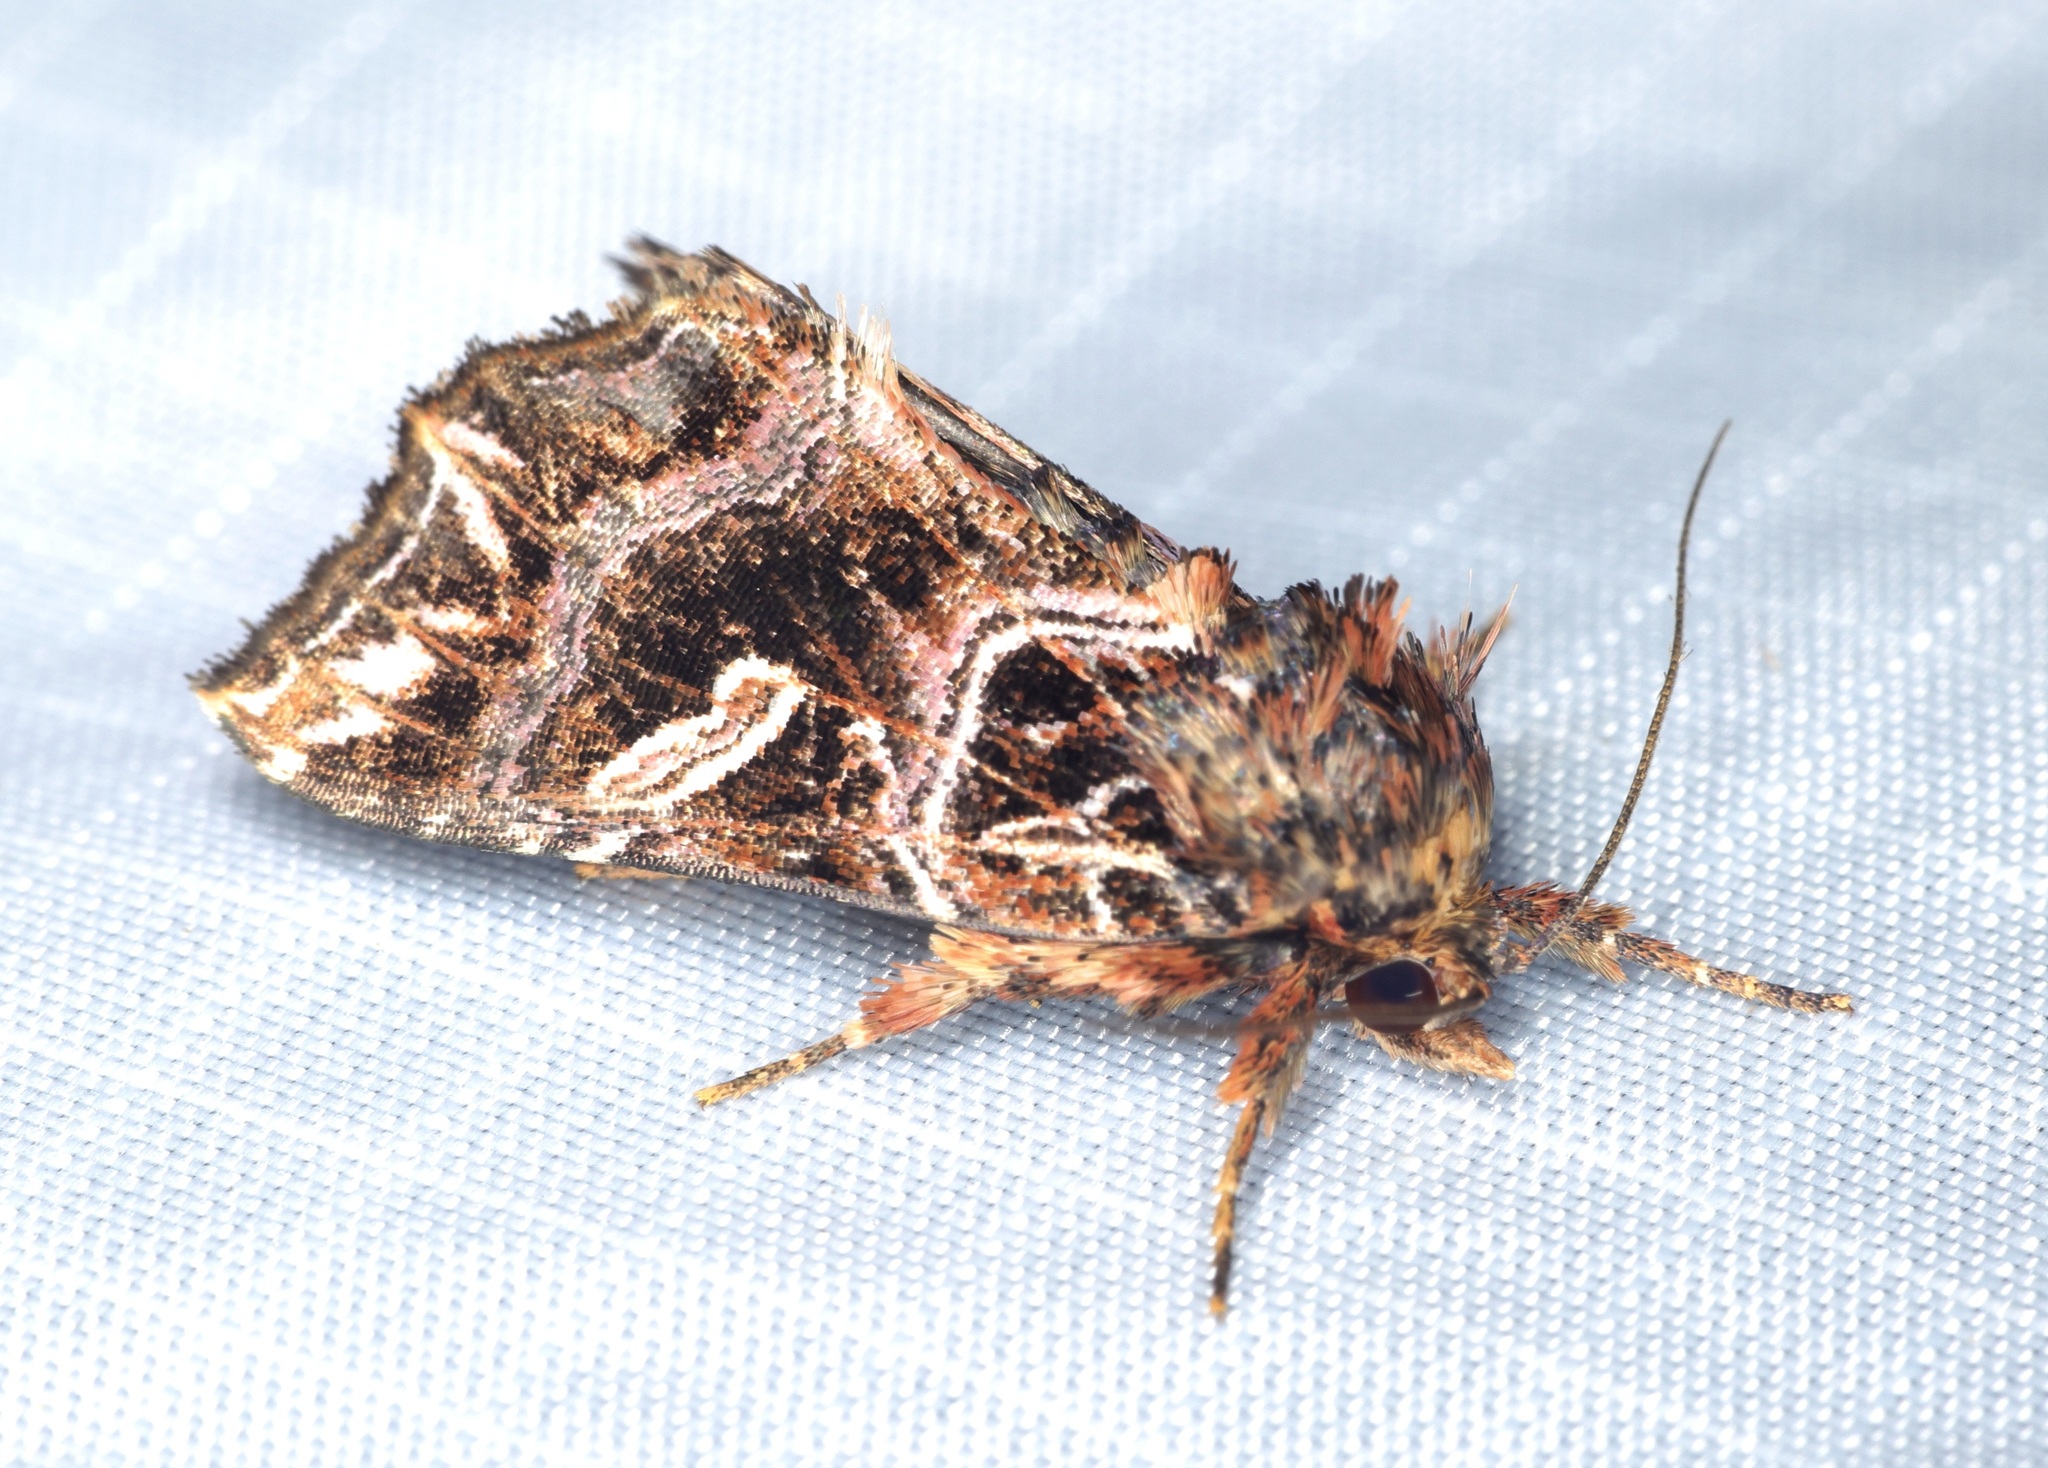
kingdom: Animalia
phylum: Arthropoda
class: Insecta
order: Lepidoptera
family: Noctuidae
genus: Callopistria
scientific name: Callopistria exotica
